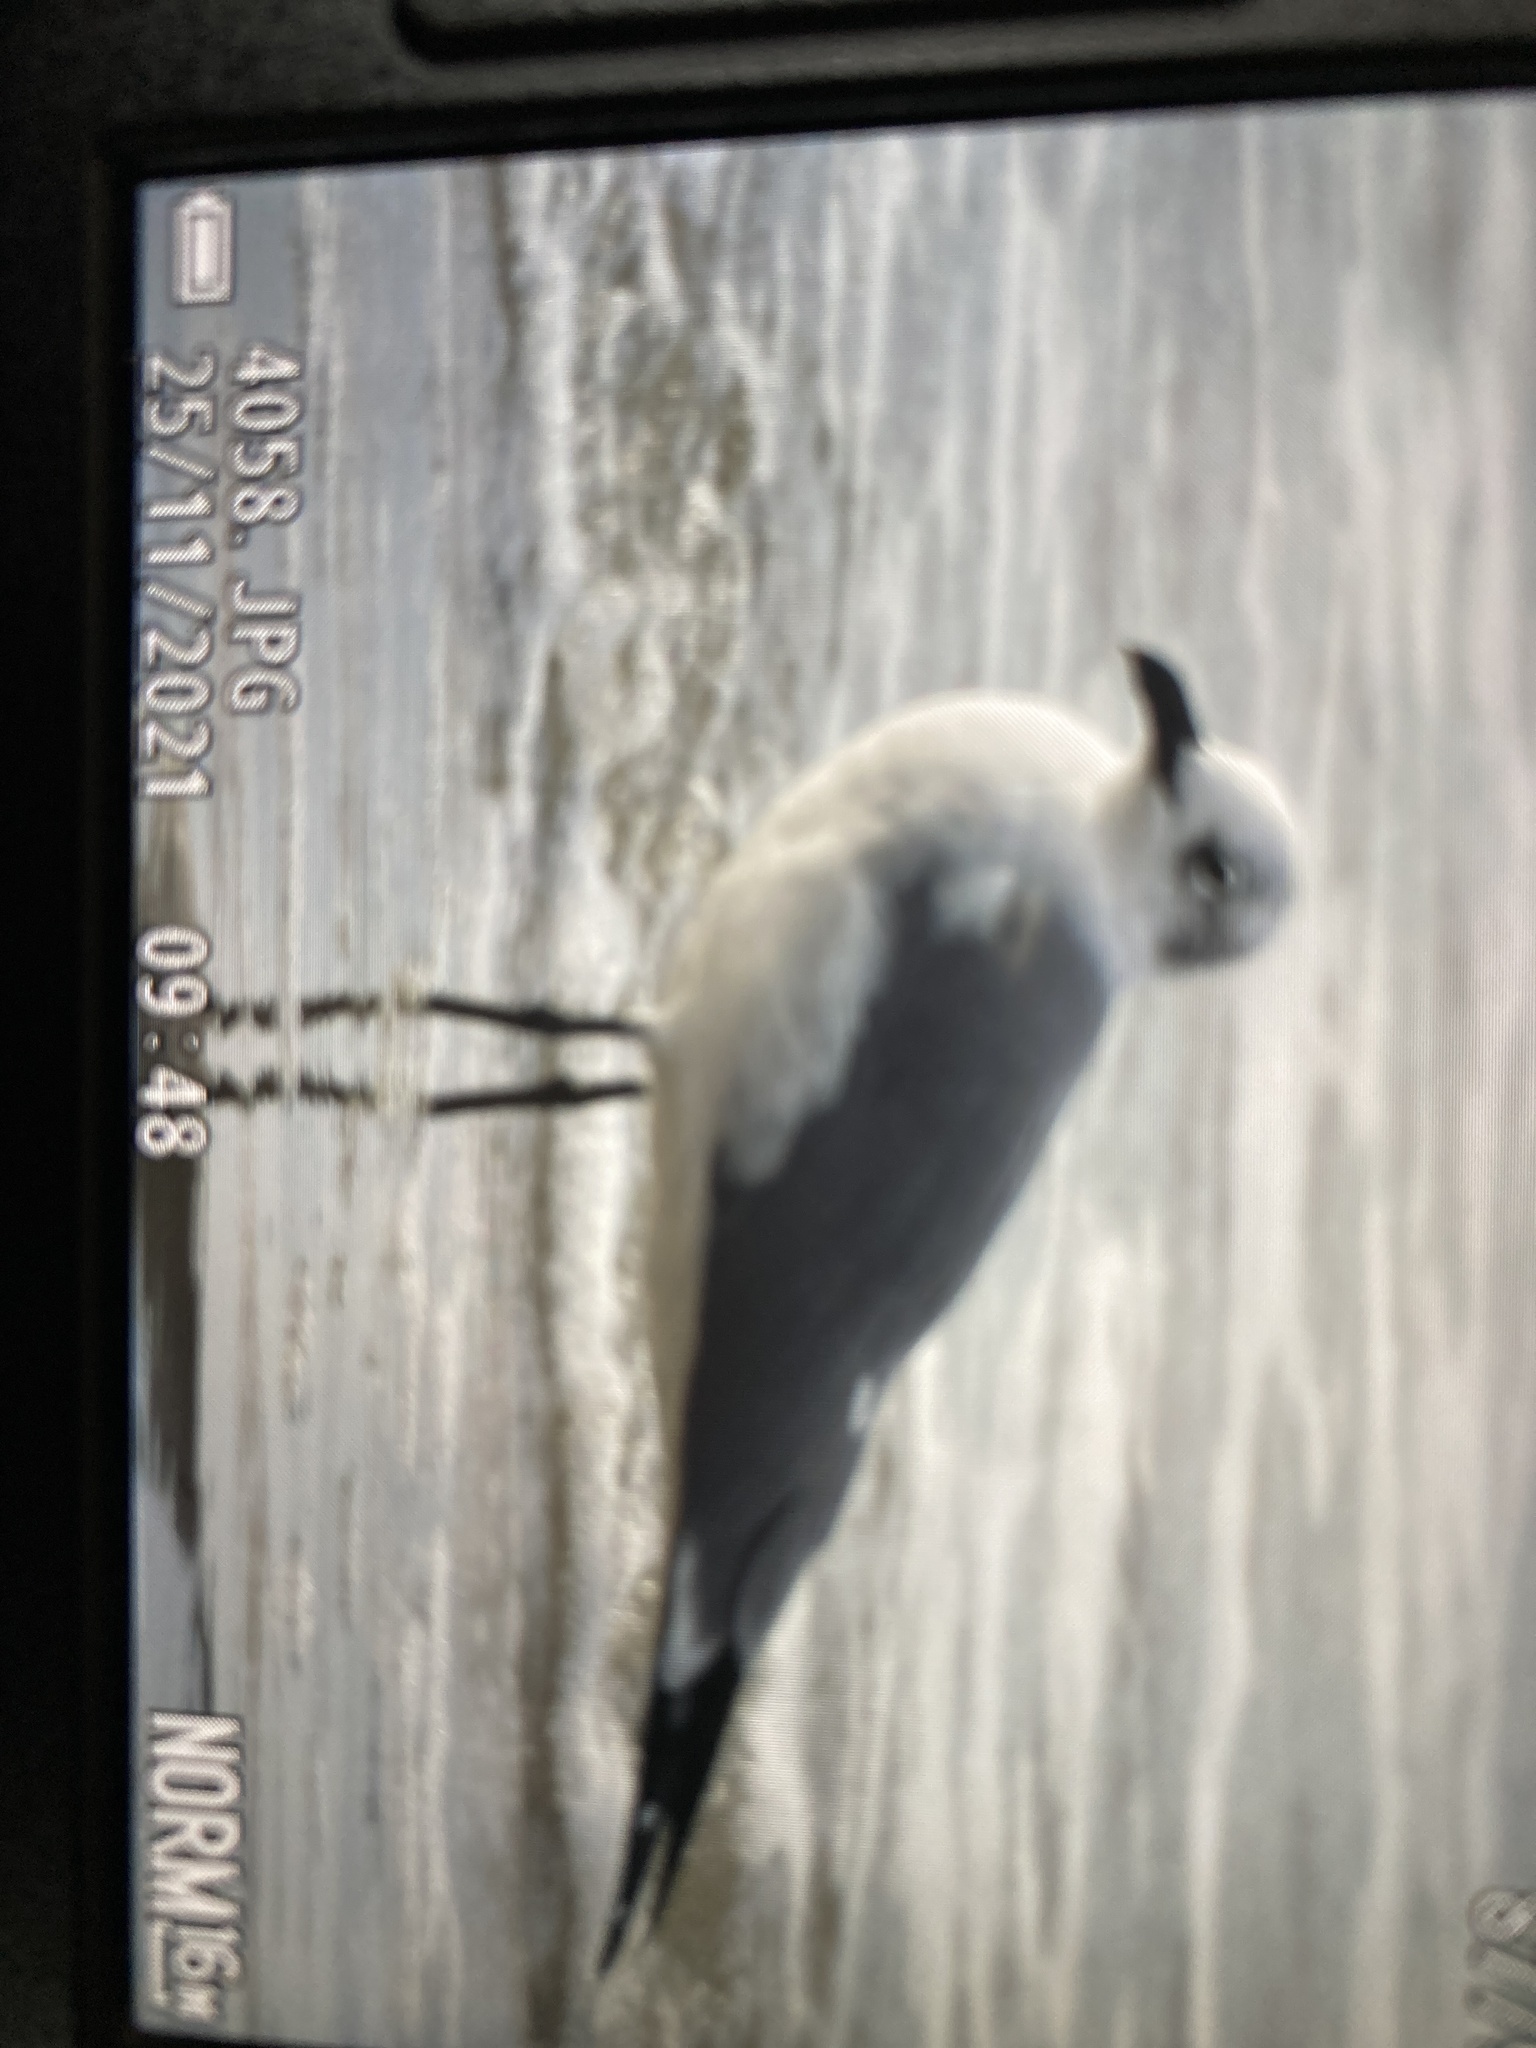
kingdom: Animalia
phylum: Chordata
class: Aves
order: Charadriiformes
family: Laridae
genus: Leucophaeus
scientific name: Leucophaeus atricilla
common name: Laughing gull
